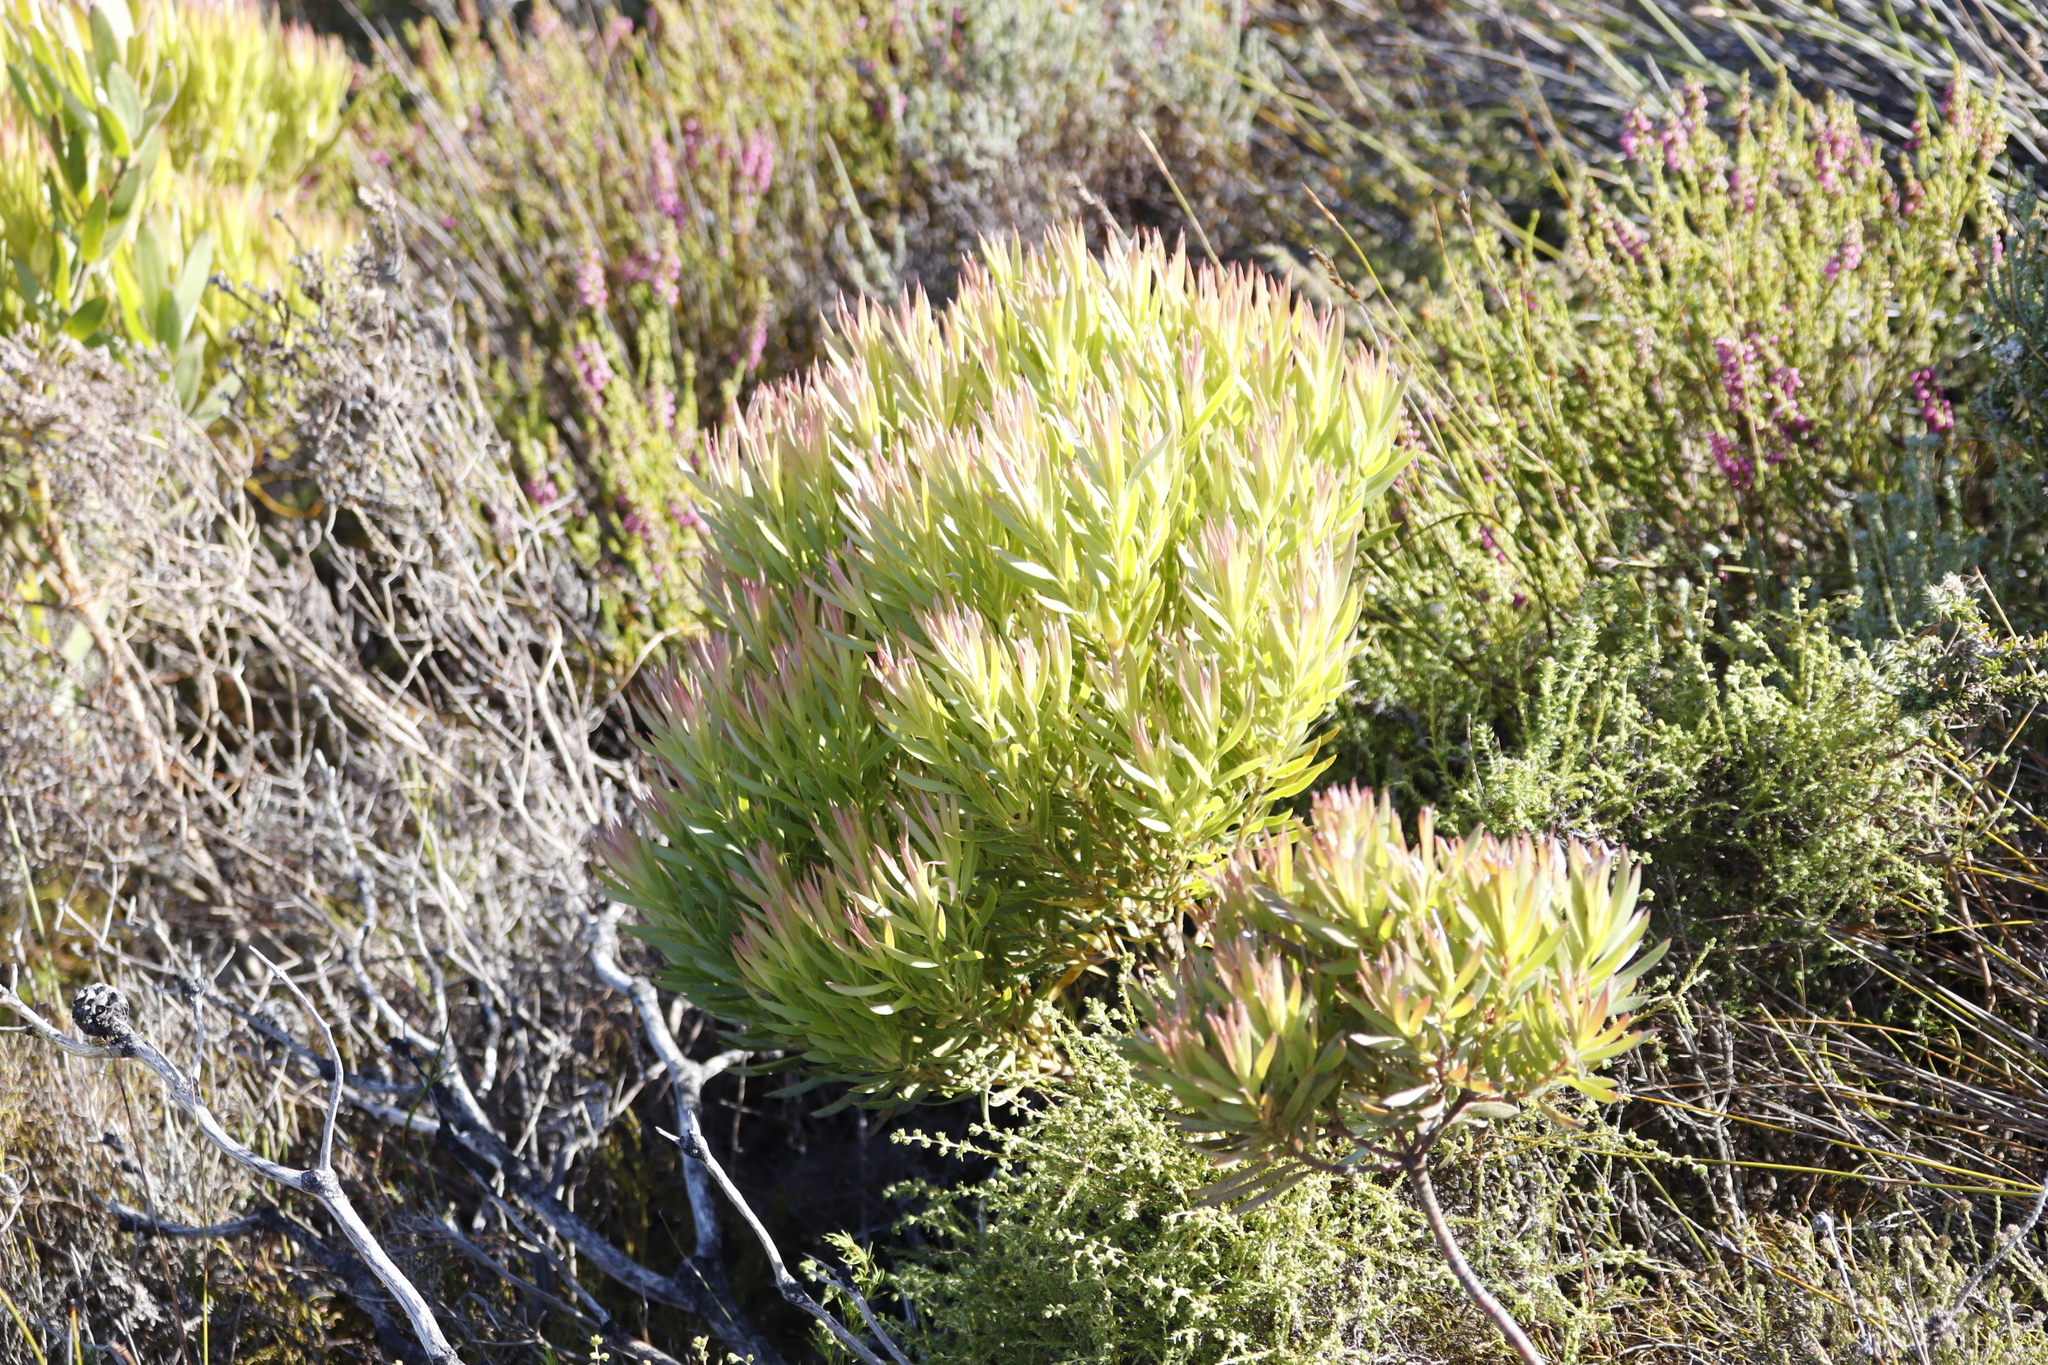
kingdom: Plantae
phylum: Tracheophyta
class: Magnoliopsida
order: Proteales
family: Proteaceae
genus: Leucadendron
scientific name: Leucadendron xanthoconus
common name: Sickle-leaf conebush
